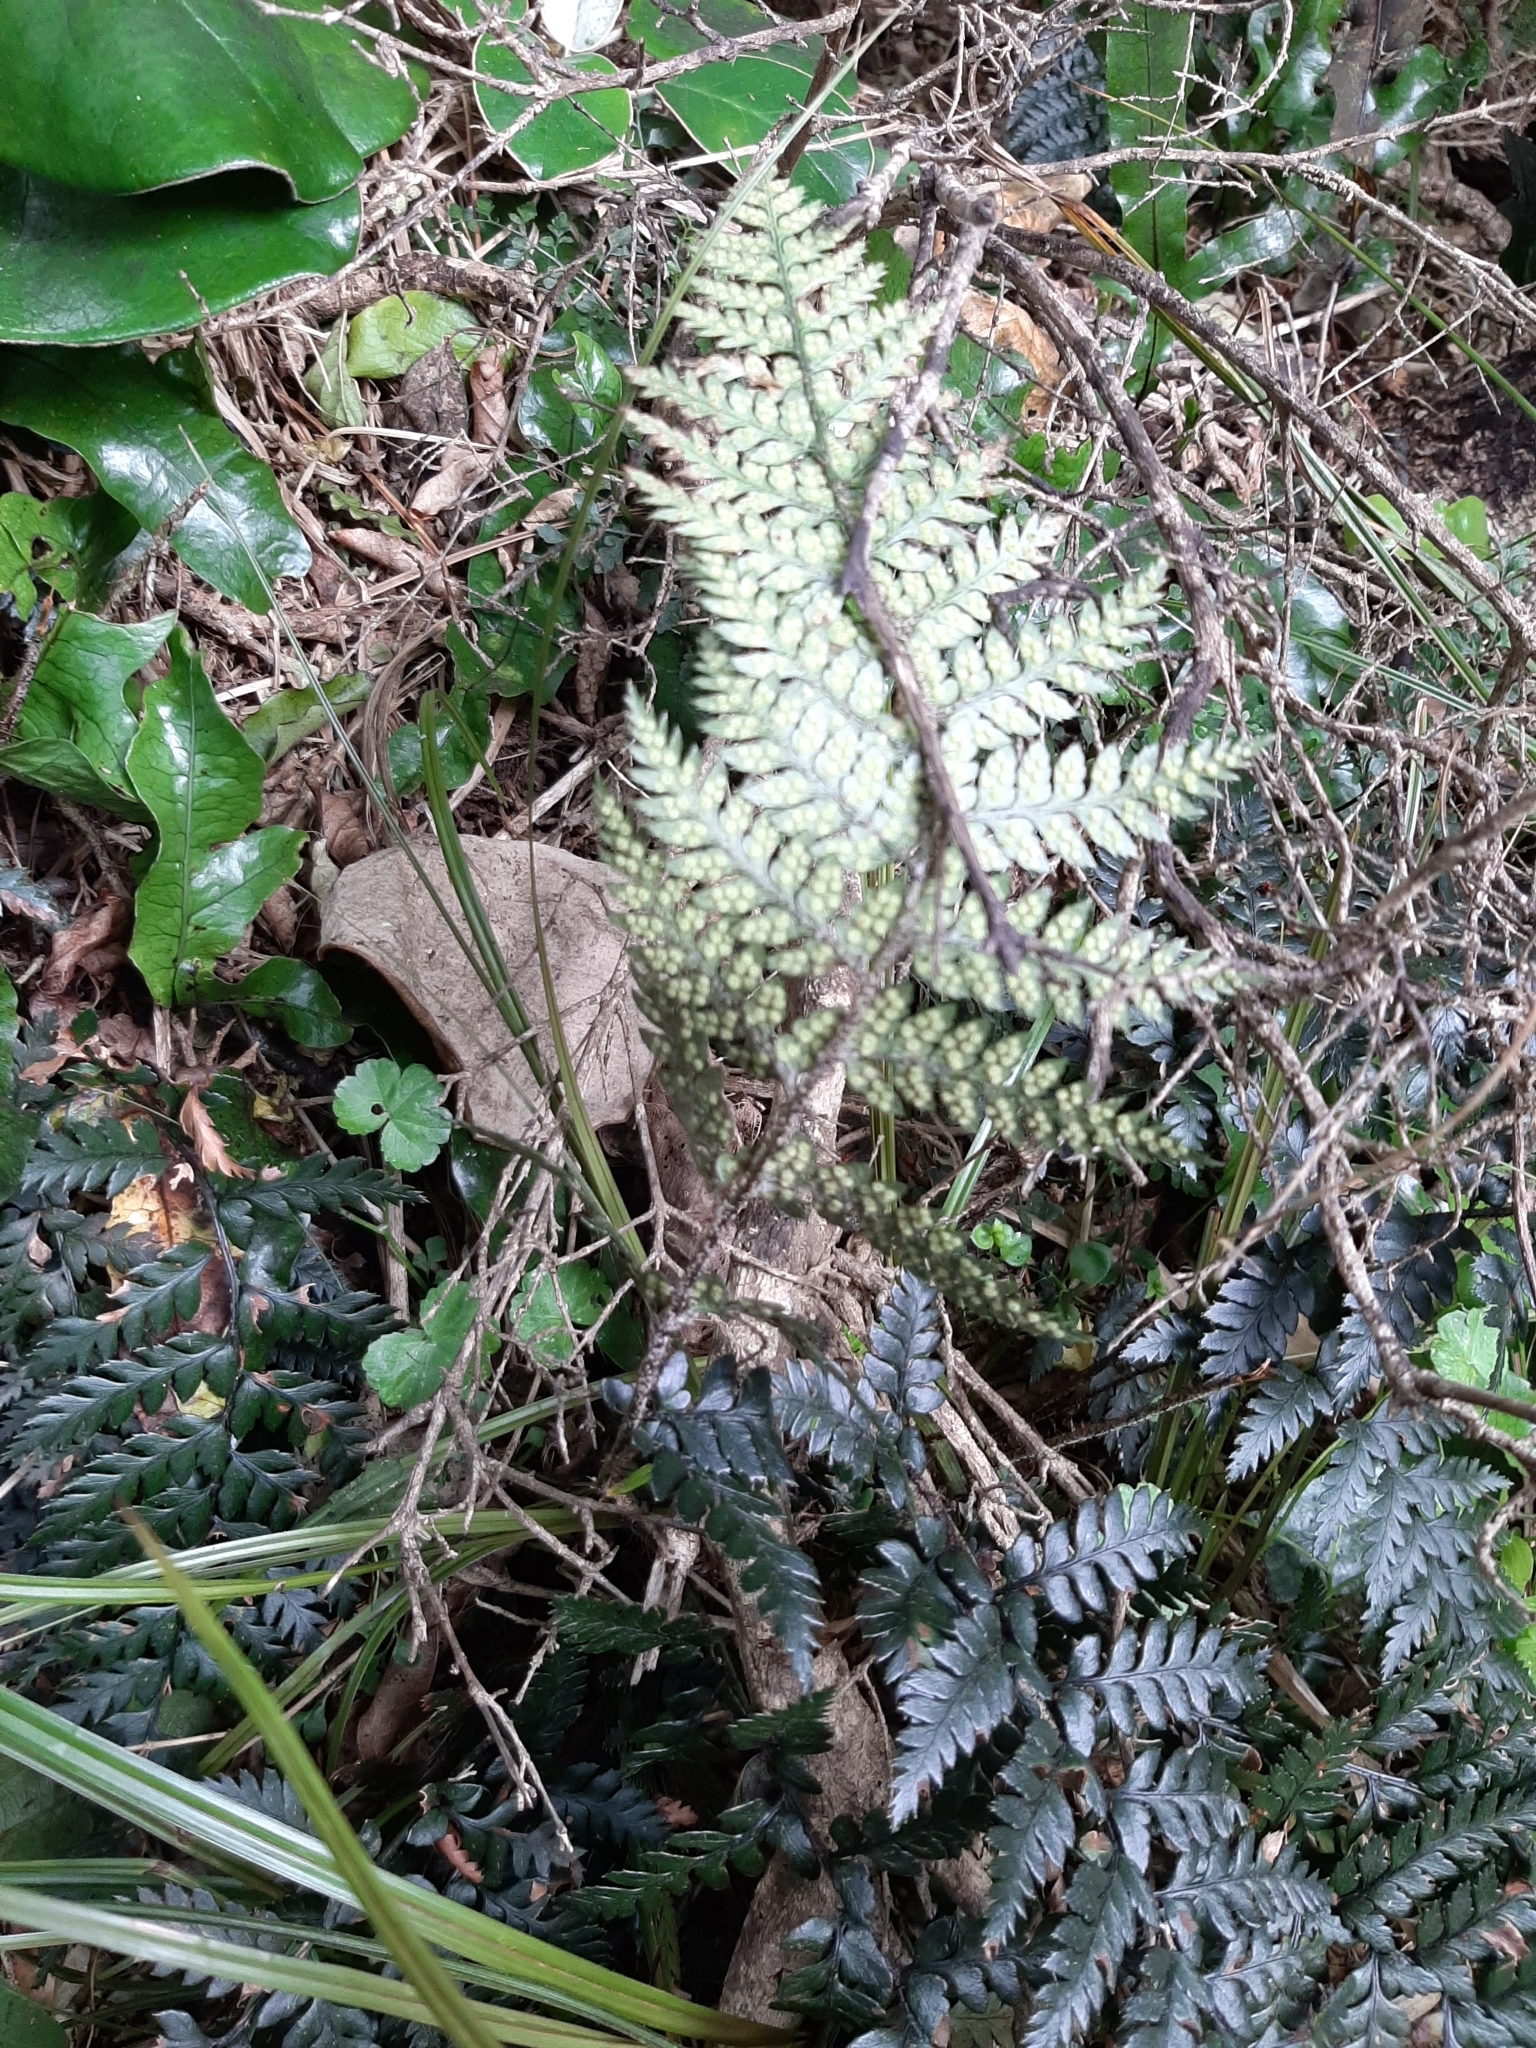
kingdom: Plantae
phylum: Tracheophyta
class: Polypodiopsida
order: Polypodiales
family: Dryopteridaceae
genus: Polystichum
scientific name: Polystichum neozelandicum
